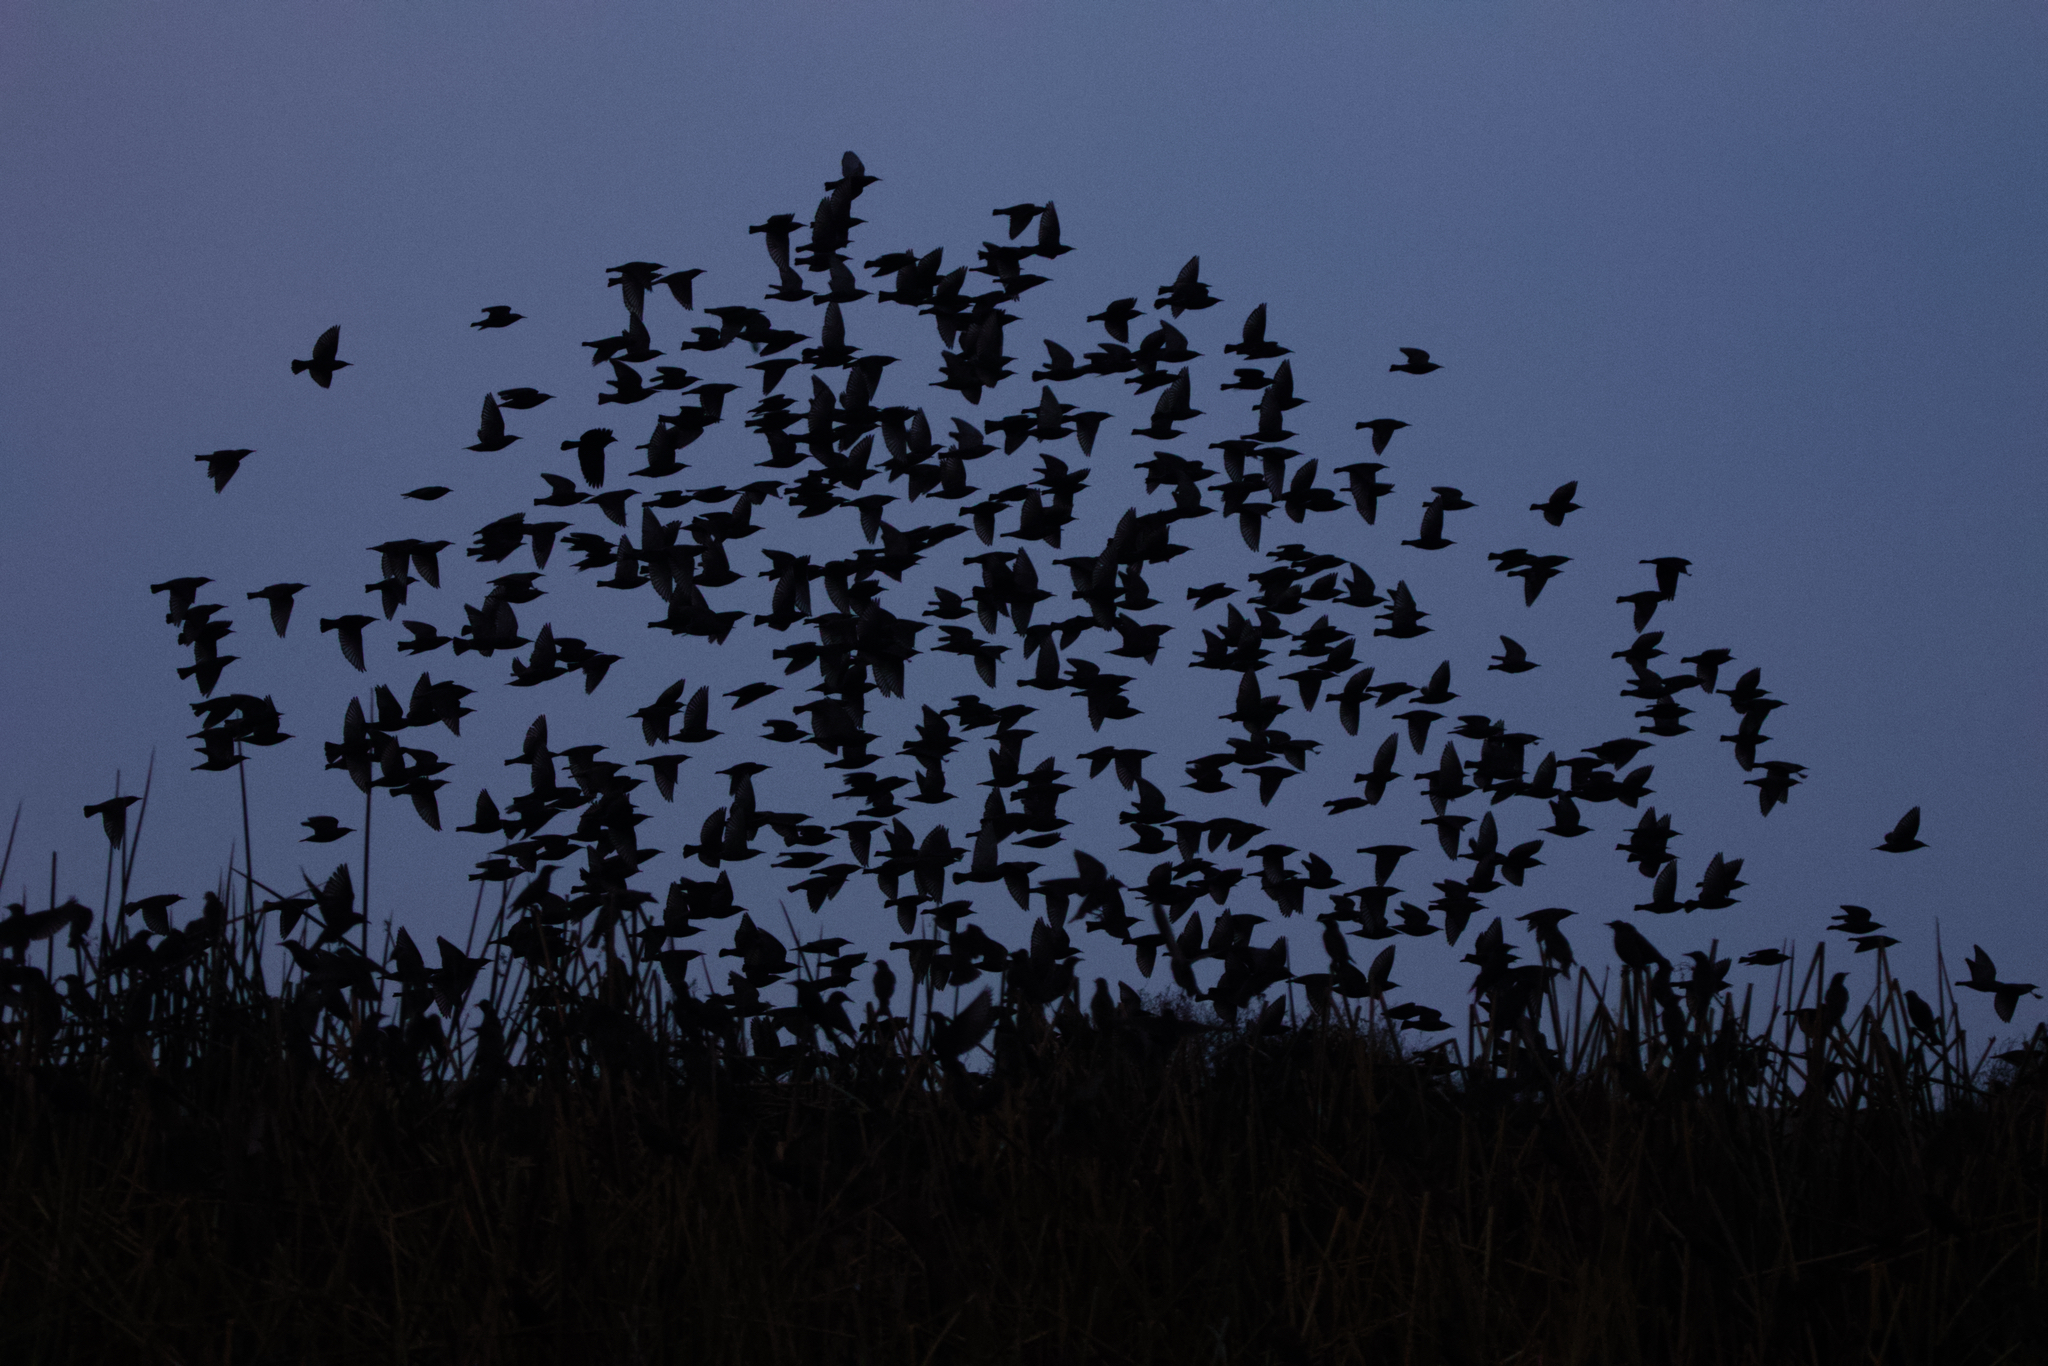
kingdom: Animalia
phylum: Chordata
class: Aves
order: Passeriformes
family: Sturnidae
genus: Sturnus
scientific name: Sturnus vulgaris
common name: Common starling
